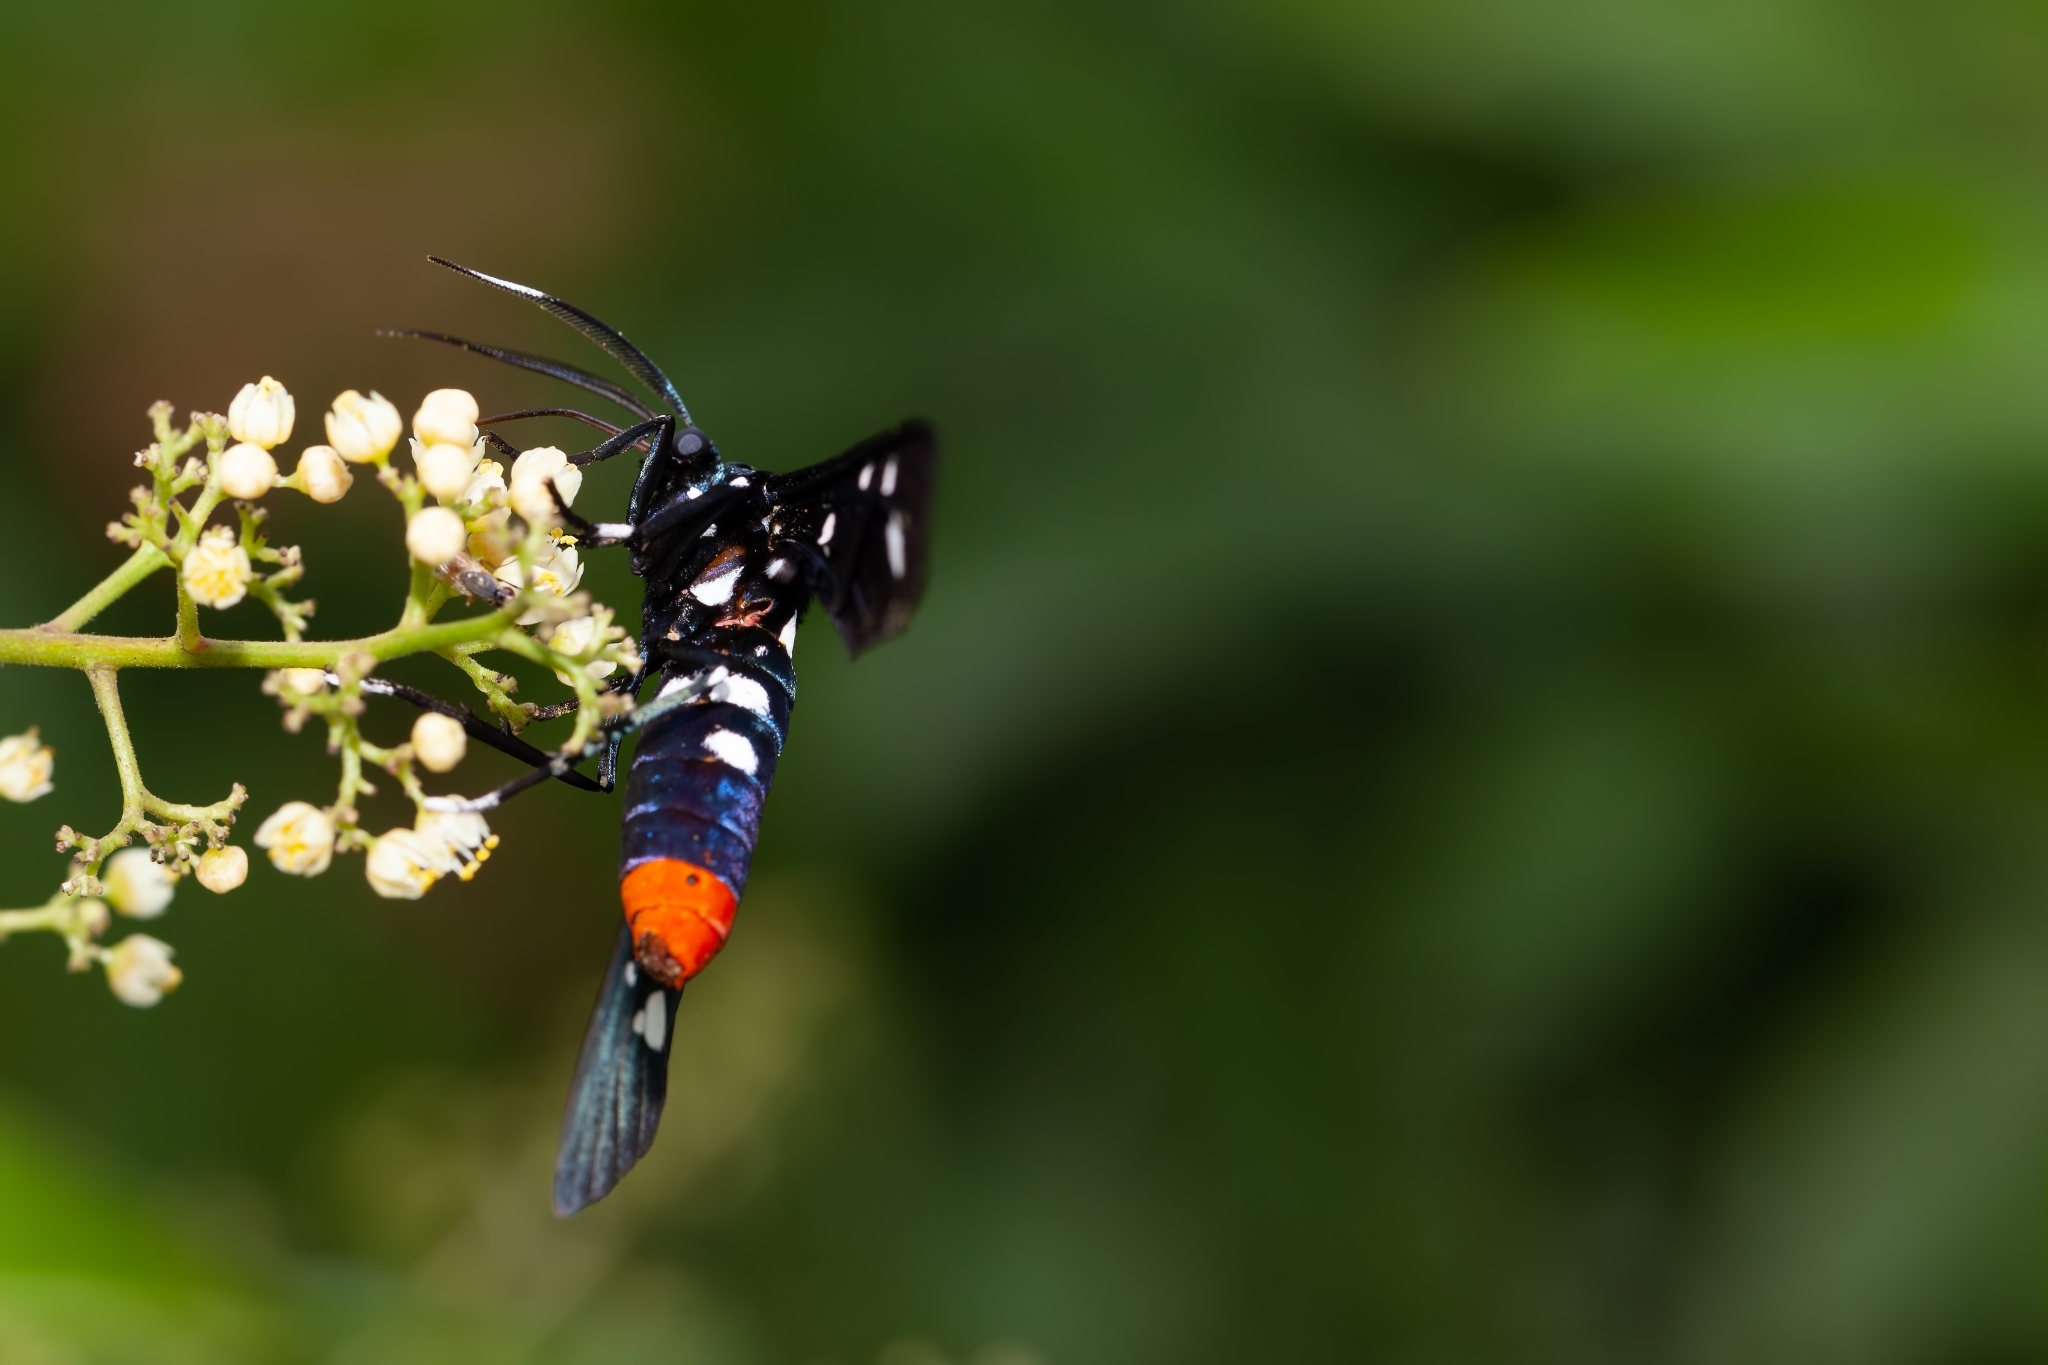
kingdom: Animalia
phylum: Arthropoda
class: Insecta
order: Lepidoptera
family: Erebidae
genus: Syntomeida
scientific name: Syntomeida epilais
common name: Polka-dot wasp moth
